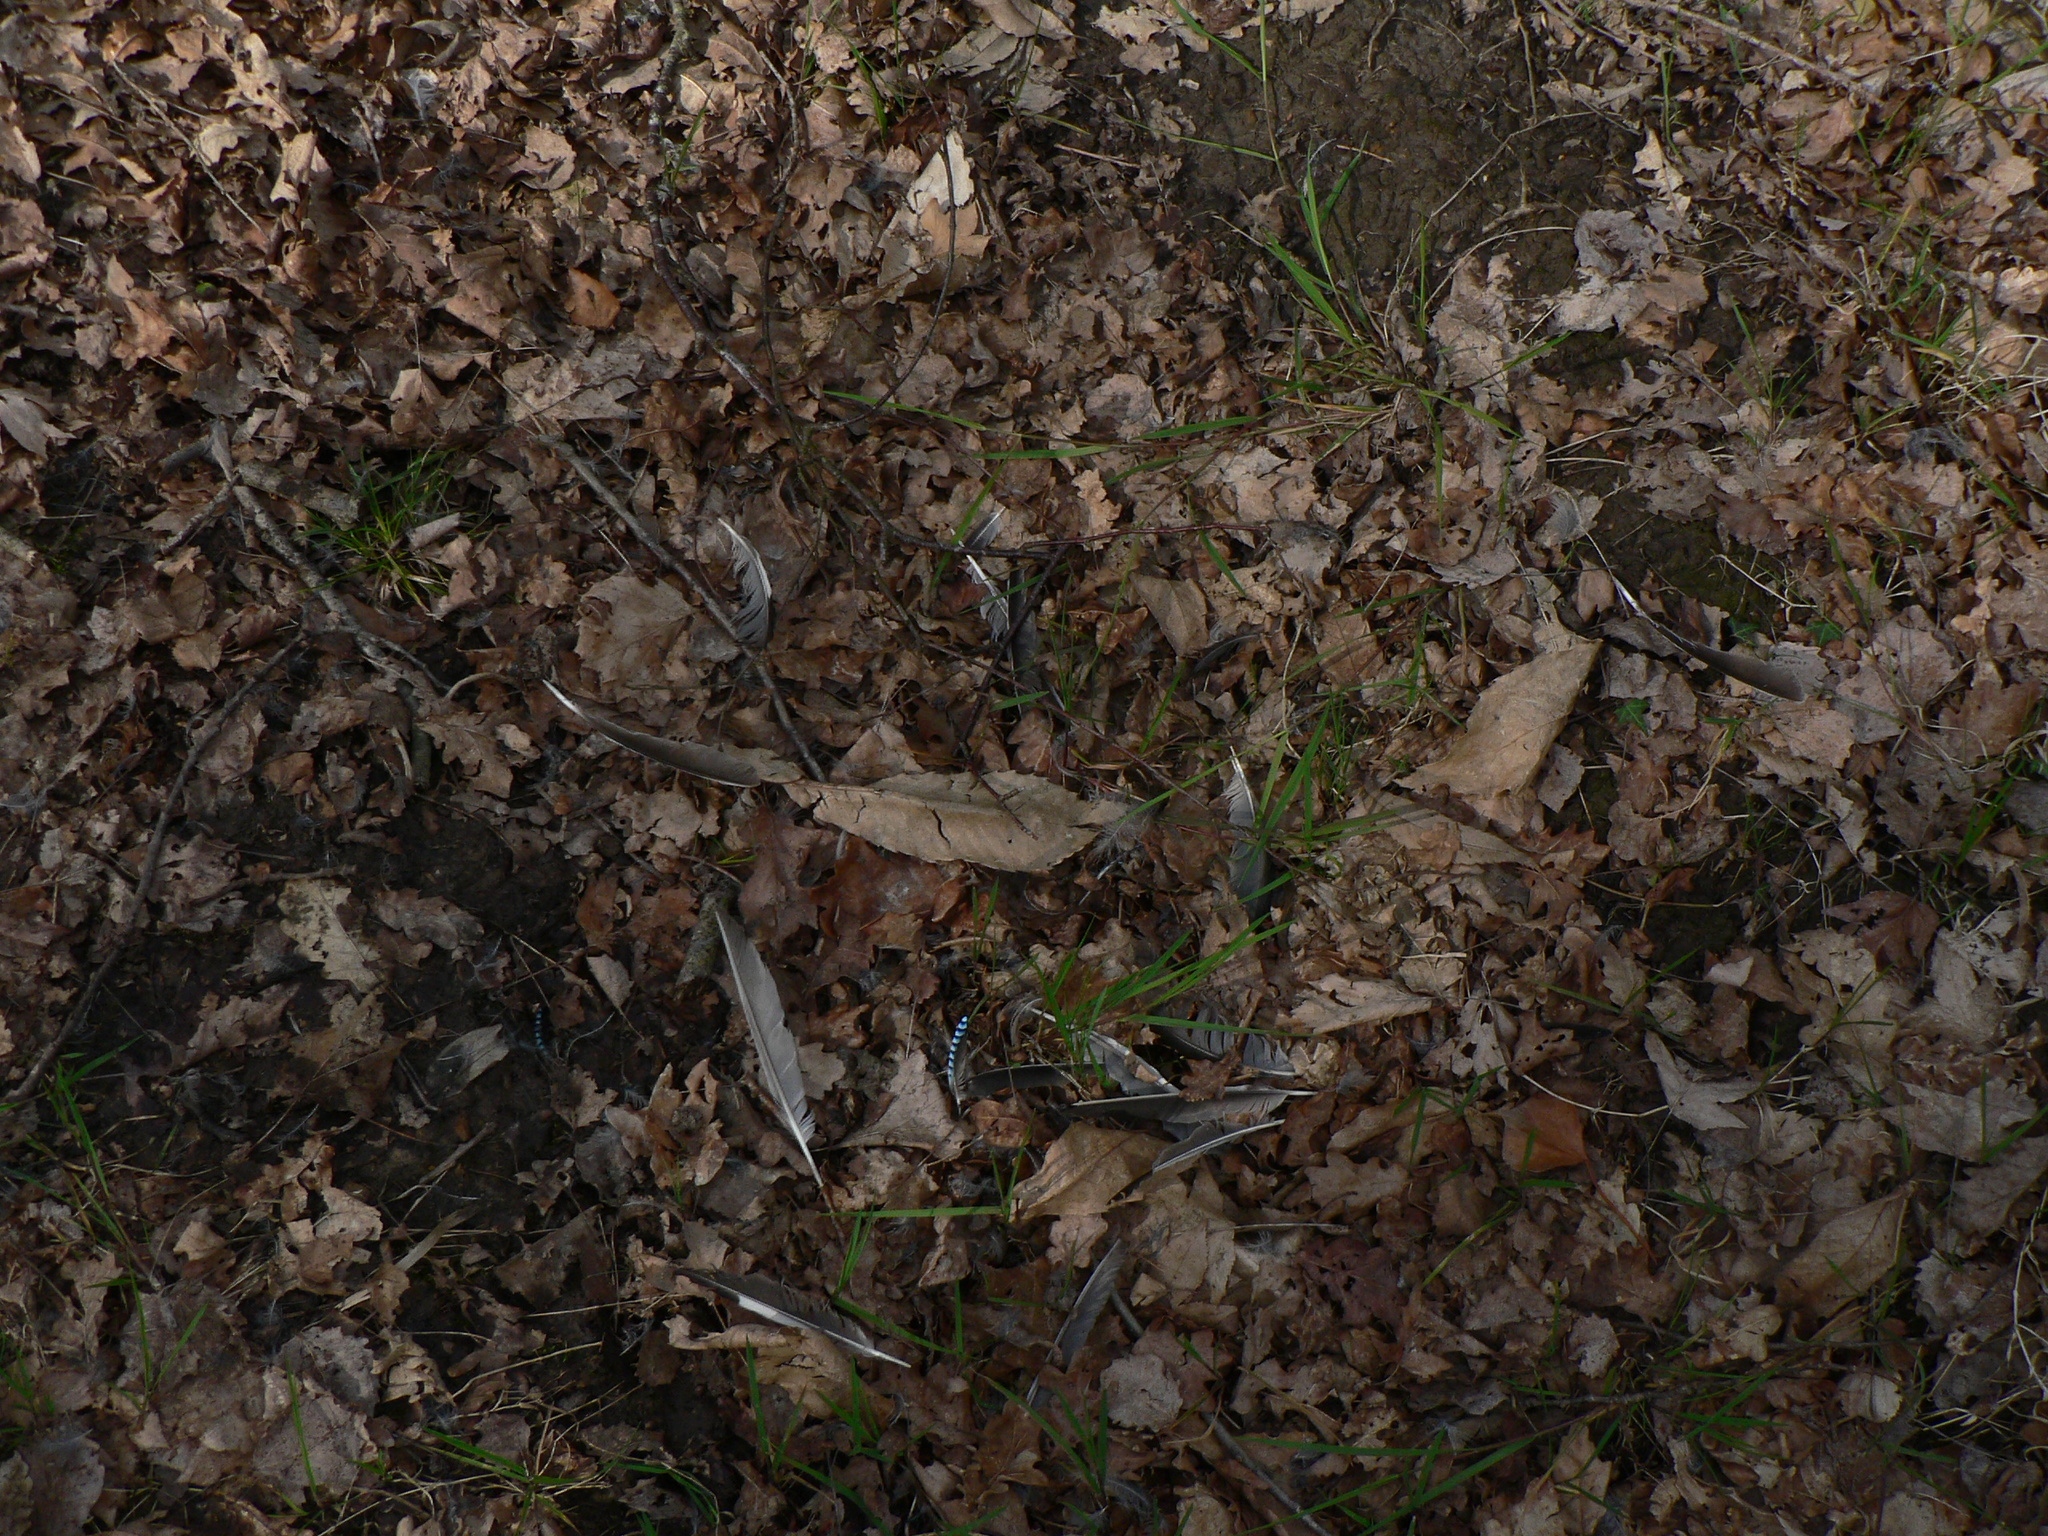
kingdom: Animalia
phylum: Chordata
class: Aves
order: Passeriformes
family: Corvidae
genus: Garrulus
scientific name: Garrulus glandarius
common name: Eurasian jay
